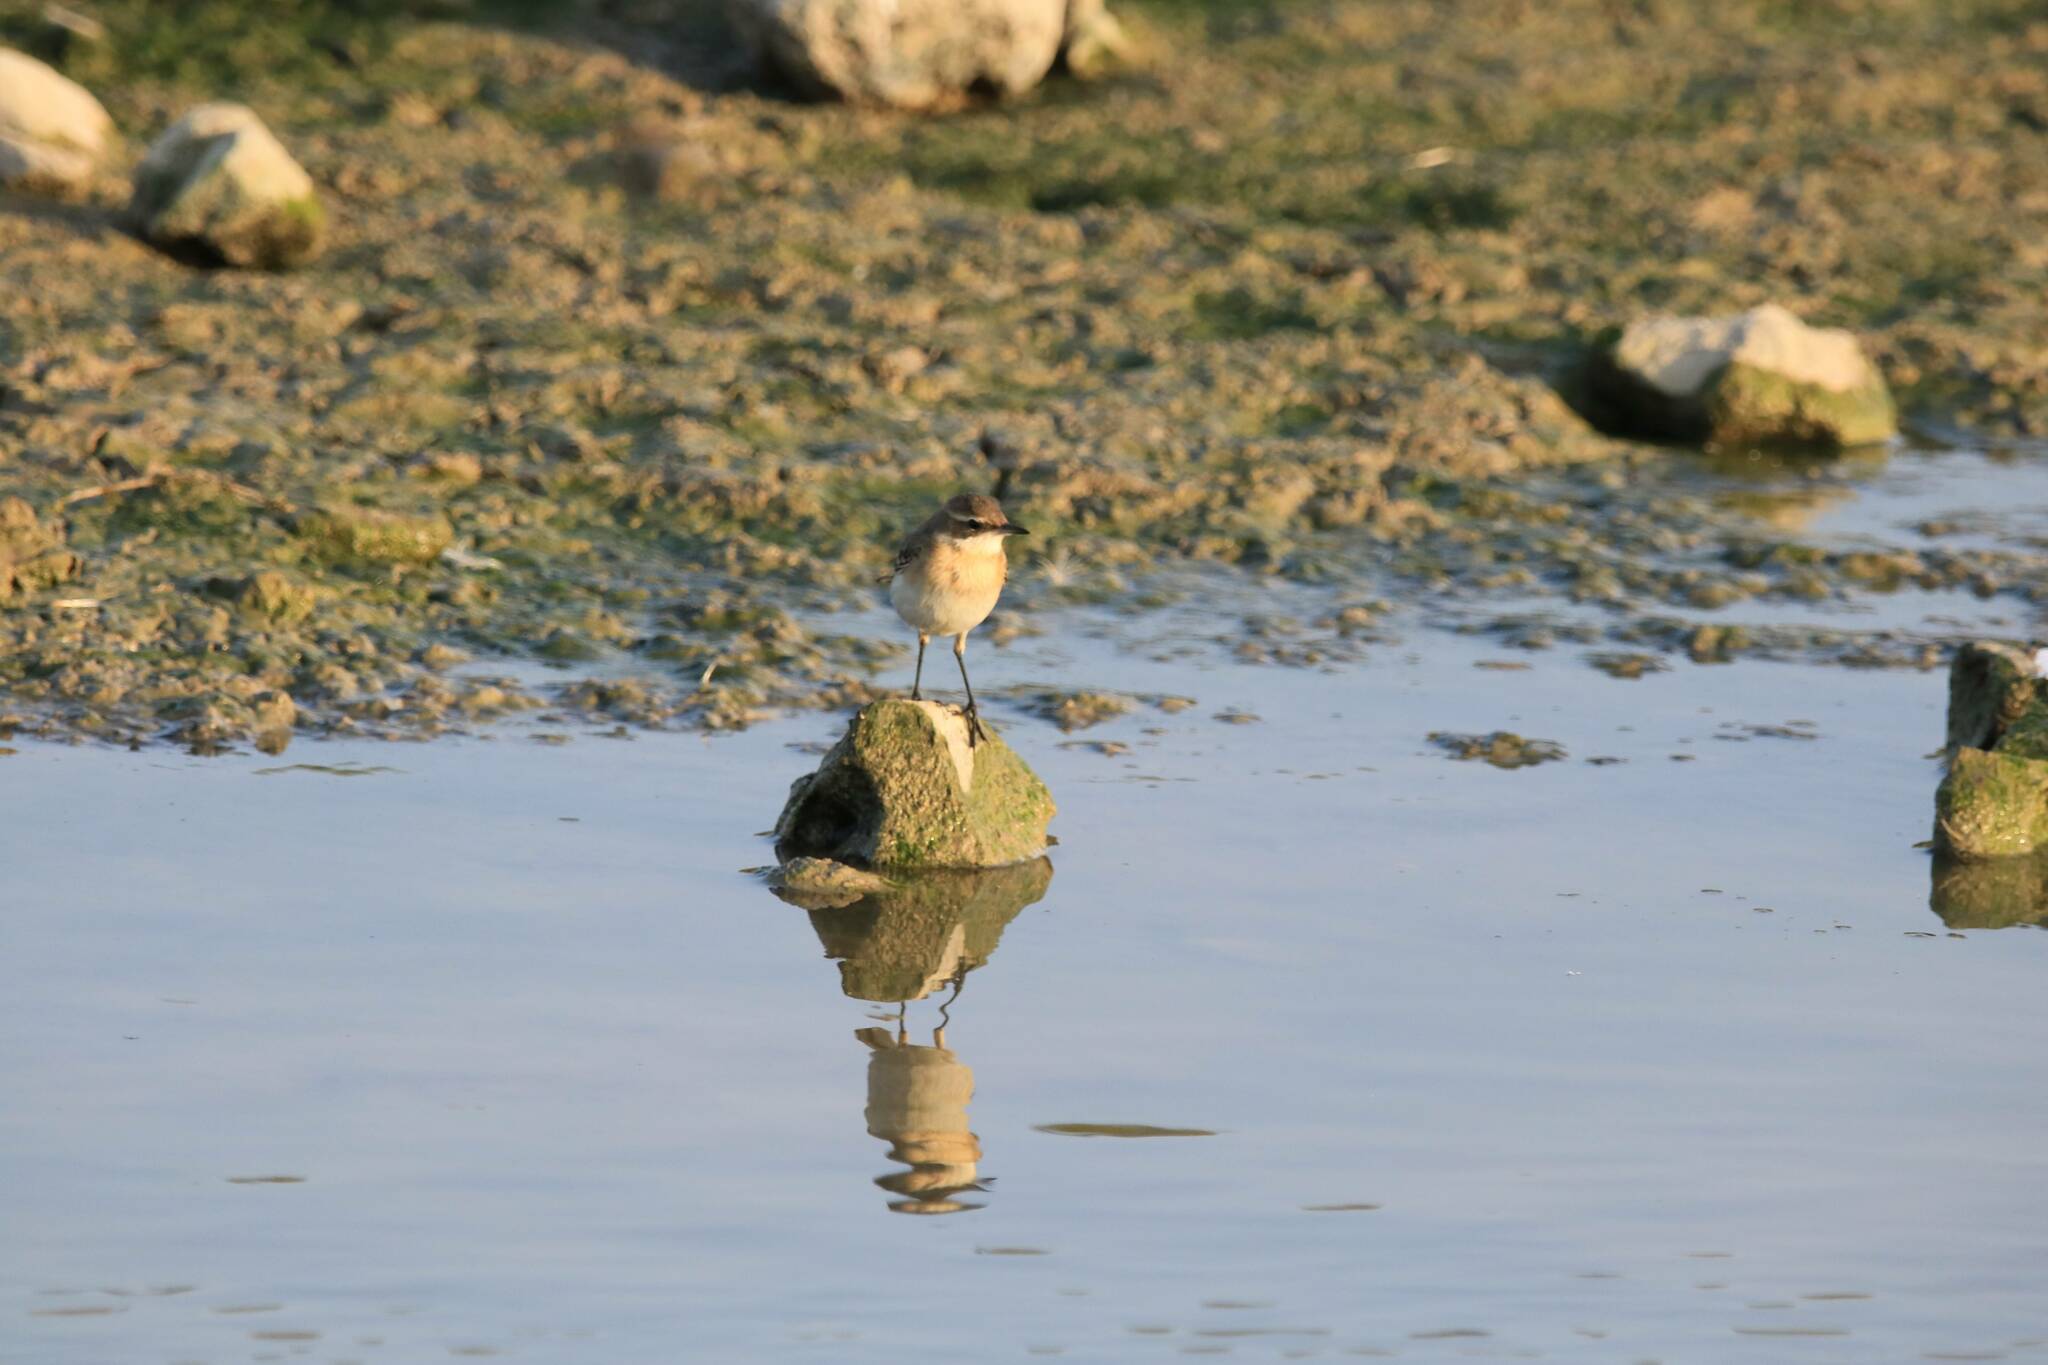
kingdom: Animalia
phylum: Chordata
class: Aves
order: Passeriformes
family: Motacillidae
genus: Motacilla
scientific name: Motacilla flava
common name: Western yellow wagtail
